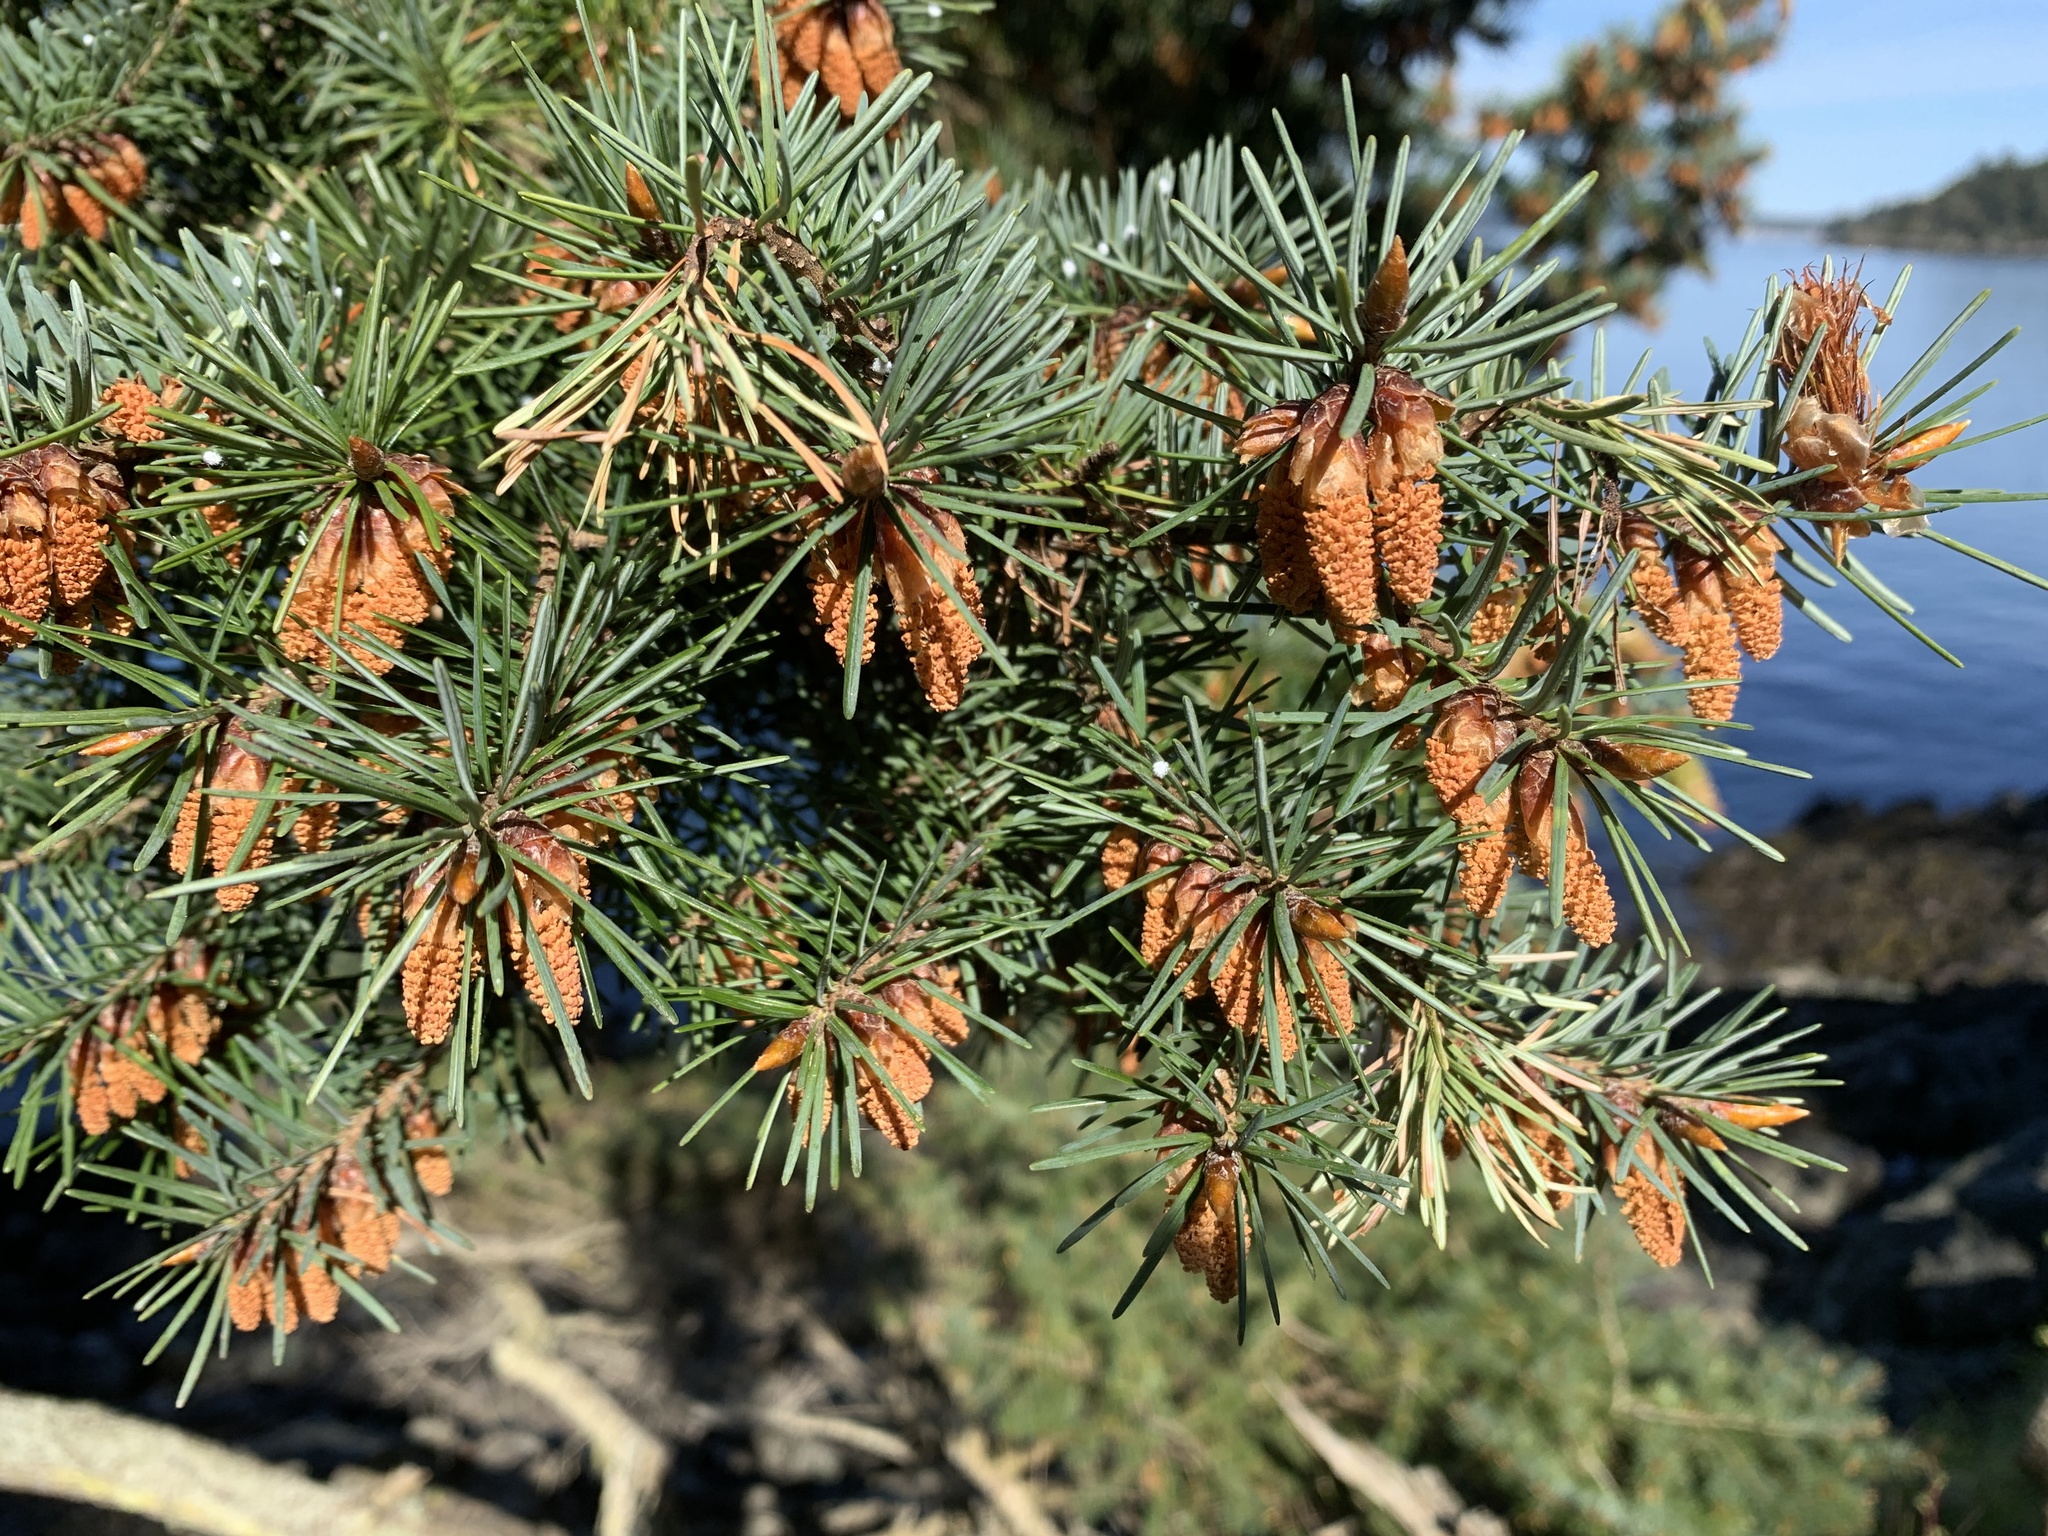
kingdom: Plantae
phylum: Tracheophyta
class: Pinopsida
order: Pinales
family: Pinaceae
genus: Pseudotsuga
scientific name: Pseudotsuga menziesii
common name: Douglas fir
